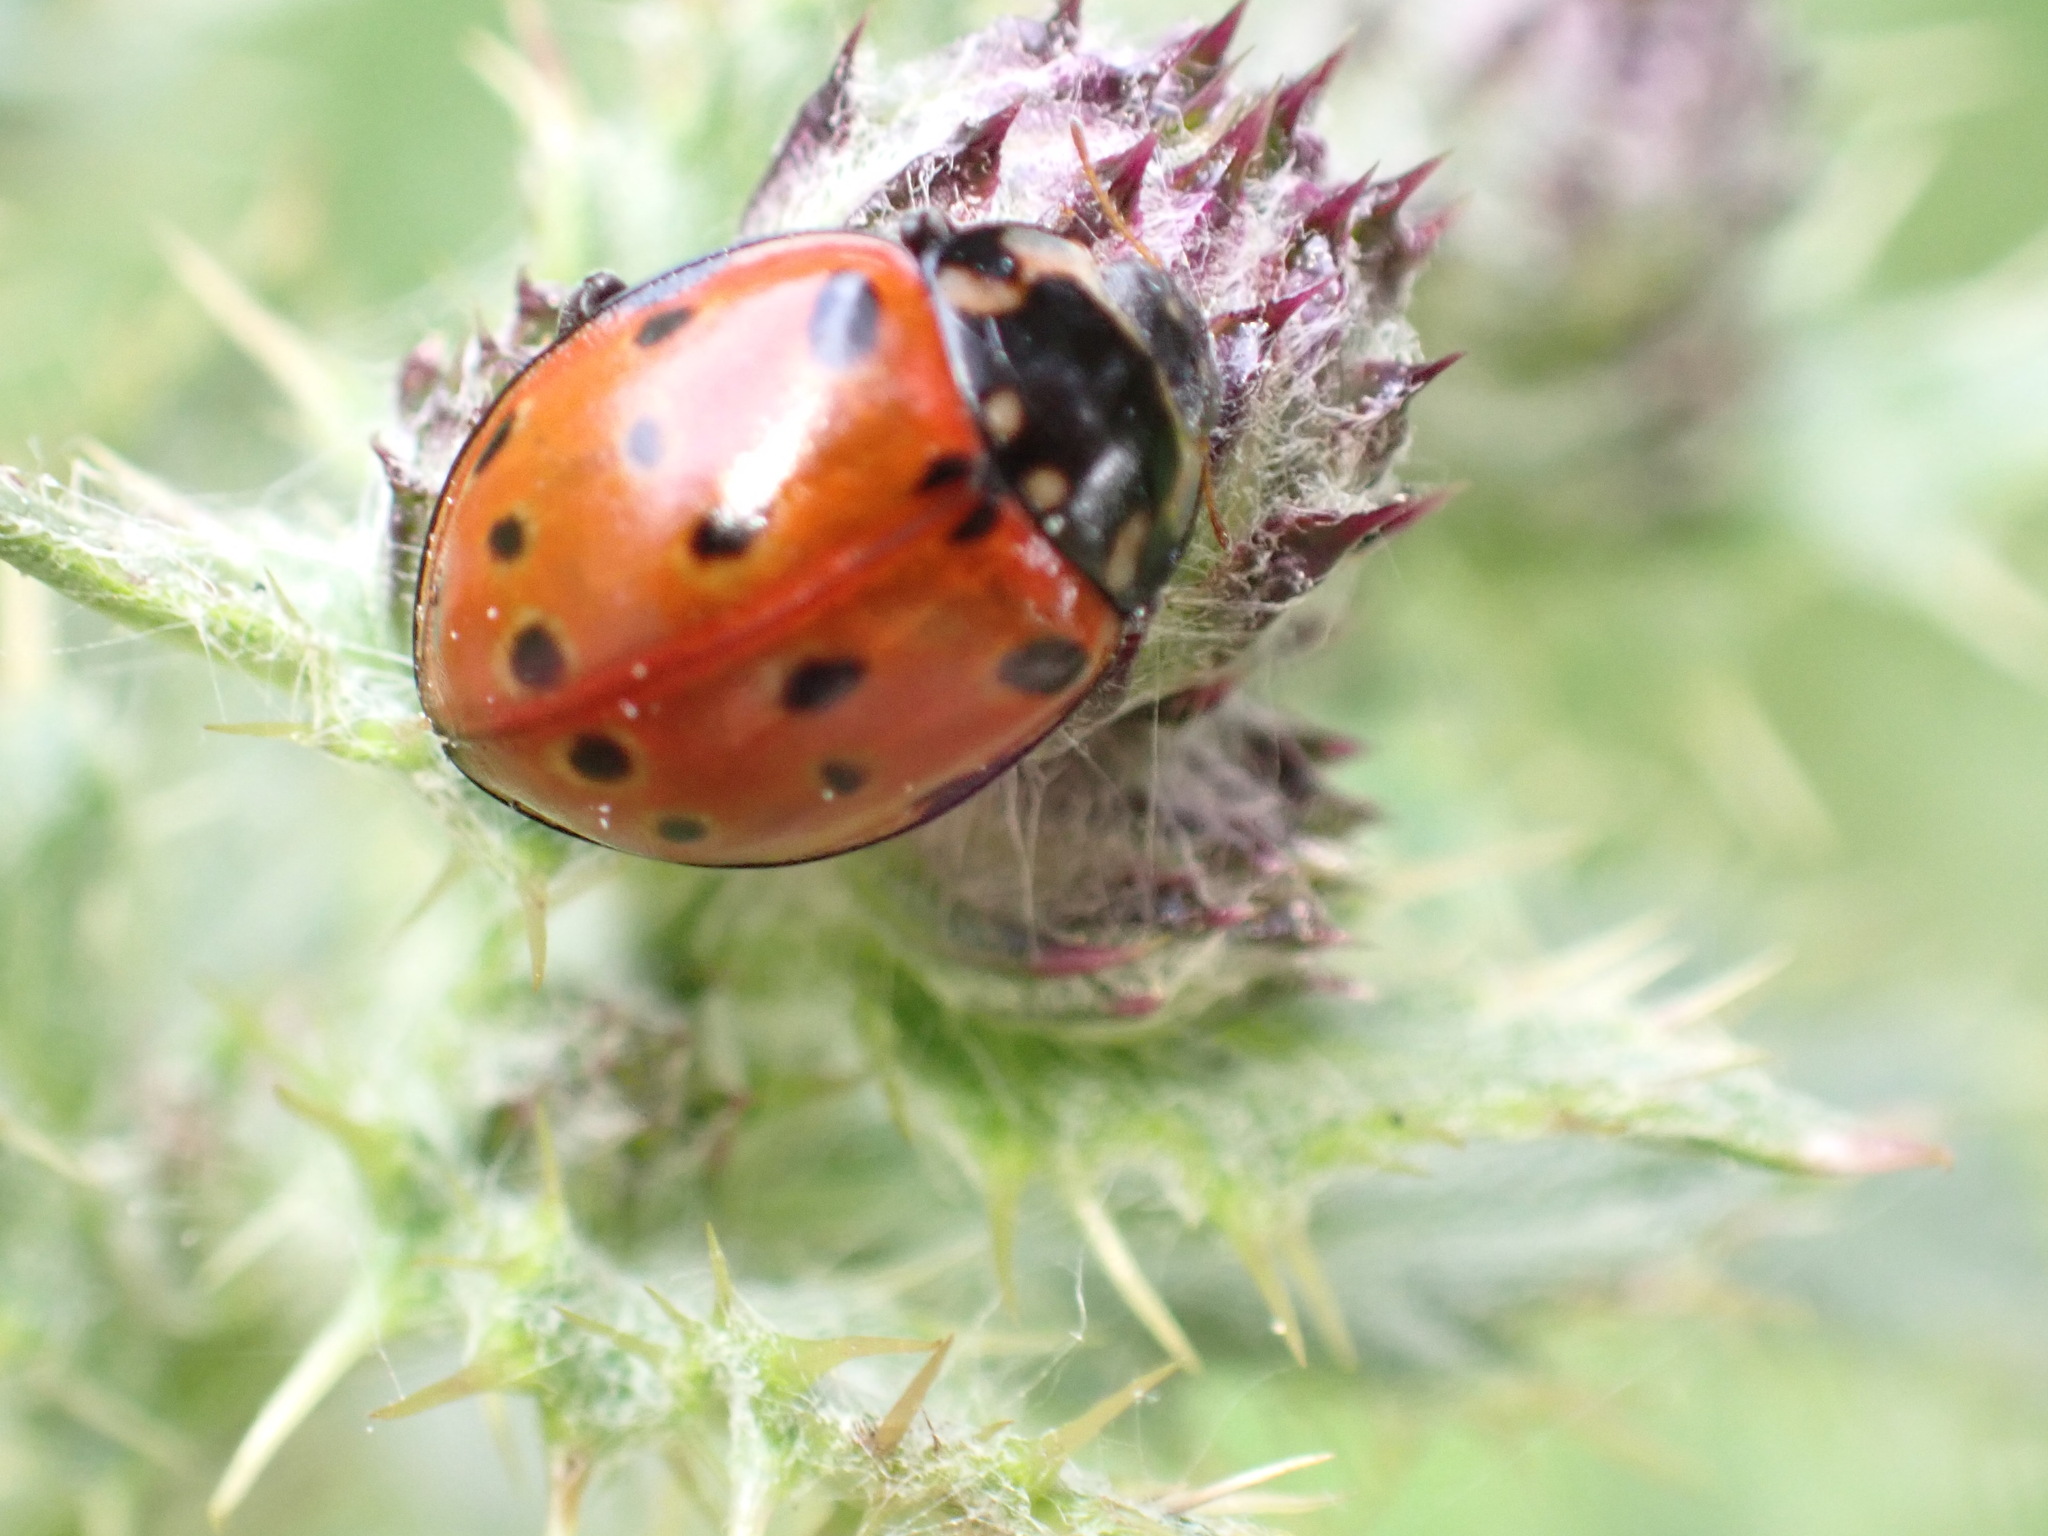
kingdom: Animalia
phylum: Arthropoda
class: Insecta
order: Coleoptera
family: Coccinellidae
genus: Anatis
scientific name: Anatis ocellata
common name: Eyed ladybird
